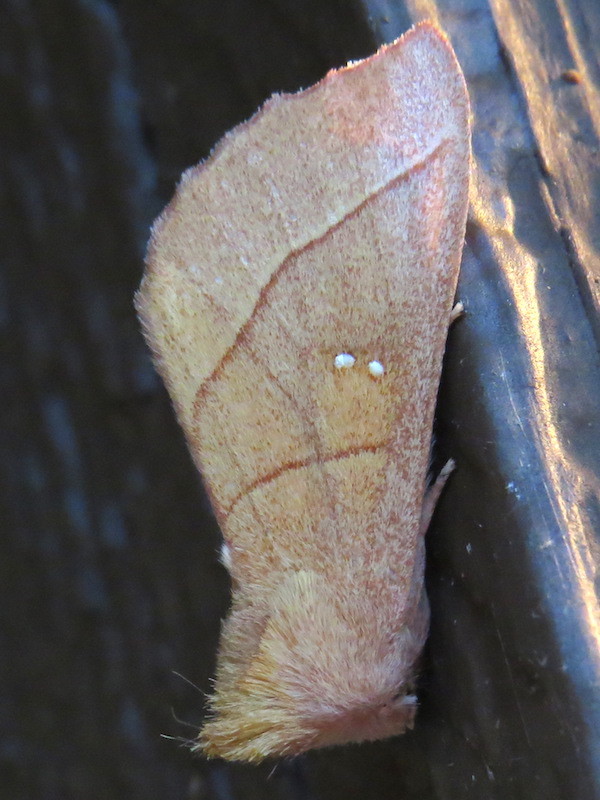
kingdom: Animalia
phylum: Arthropoda
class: Insecta
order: Lepidoptera
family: Notodontidae
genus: Nadata
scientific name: Nadata gibbosa
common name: White-dotted prominent
